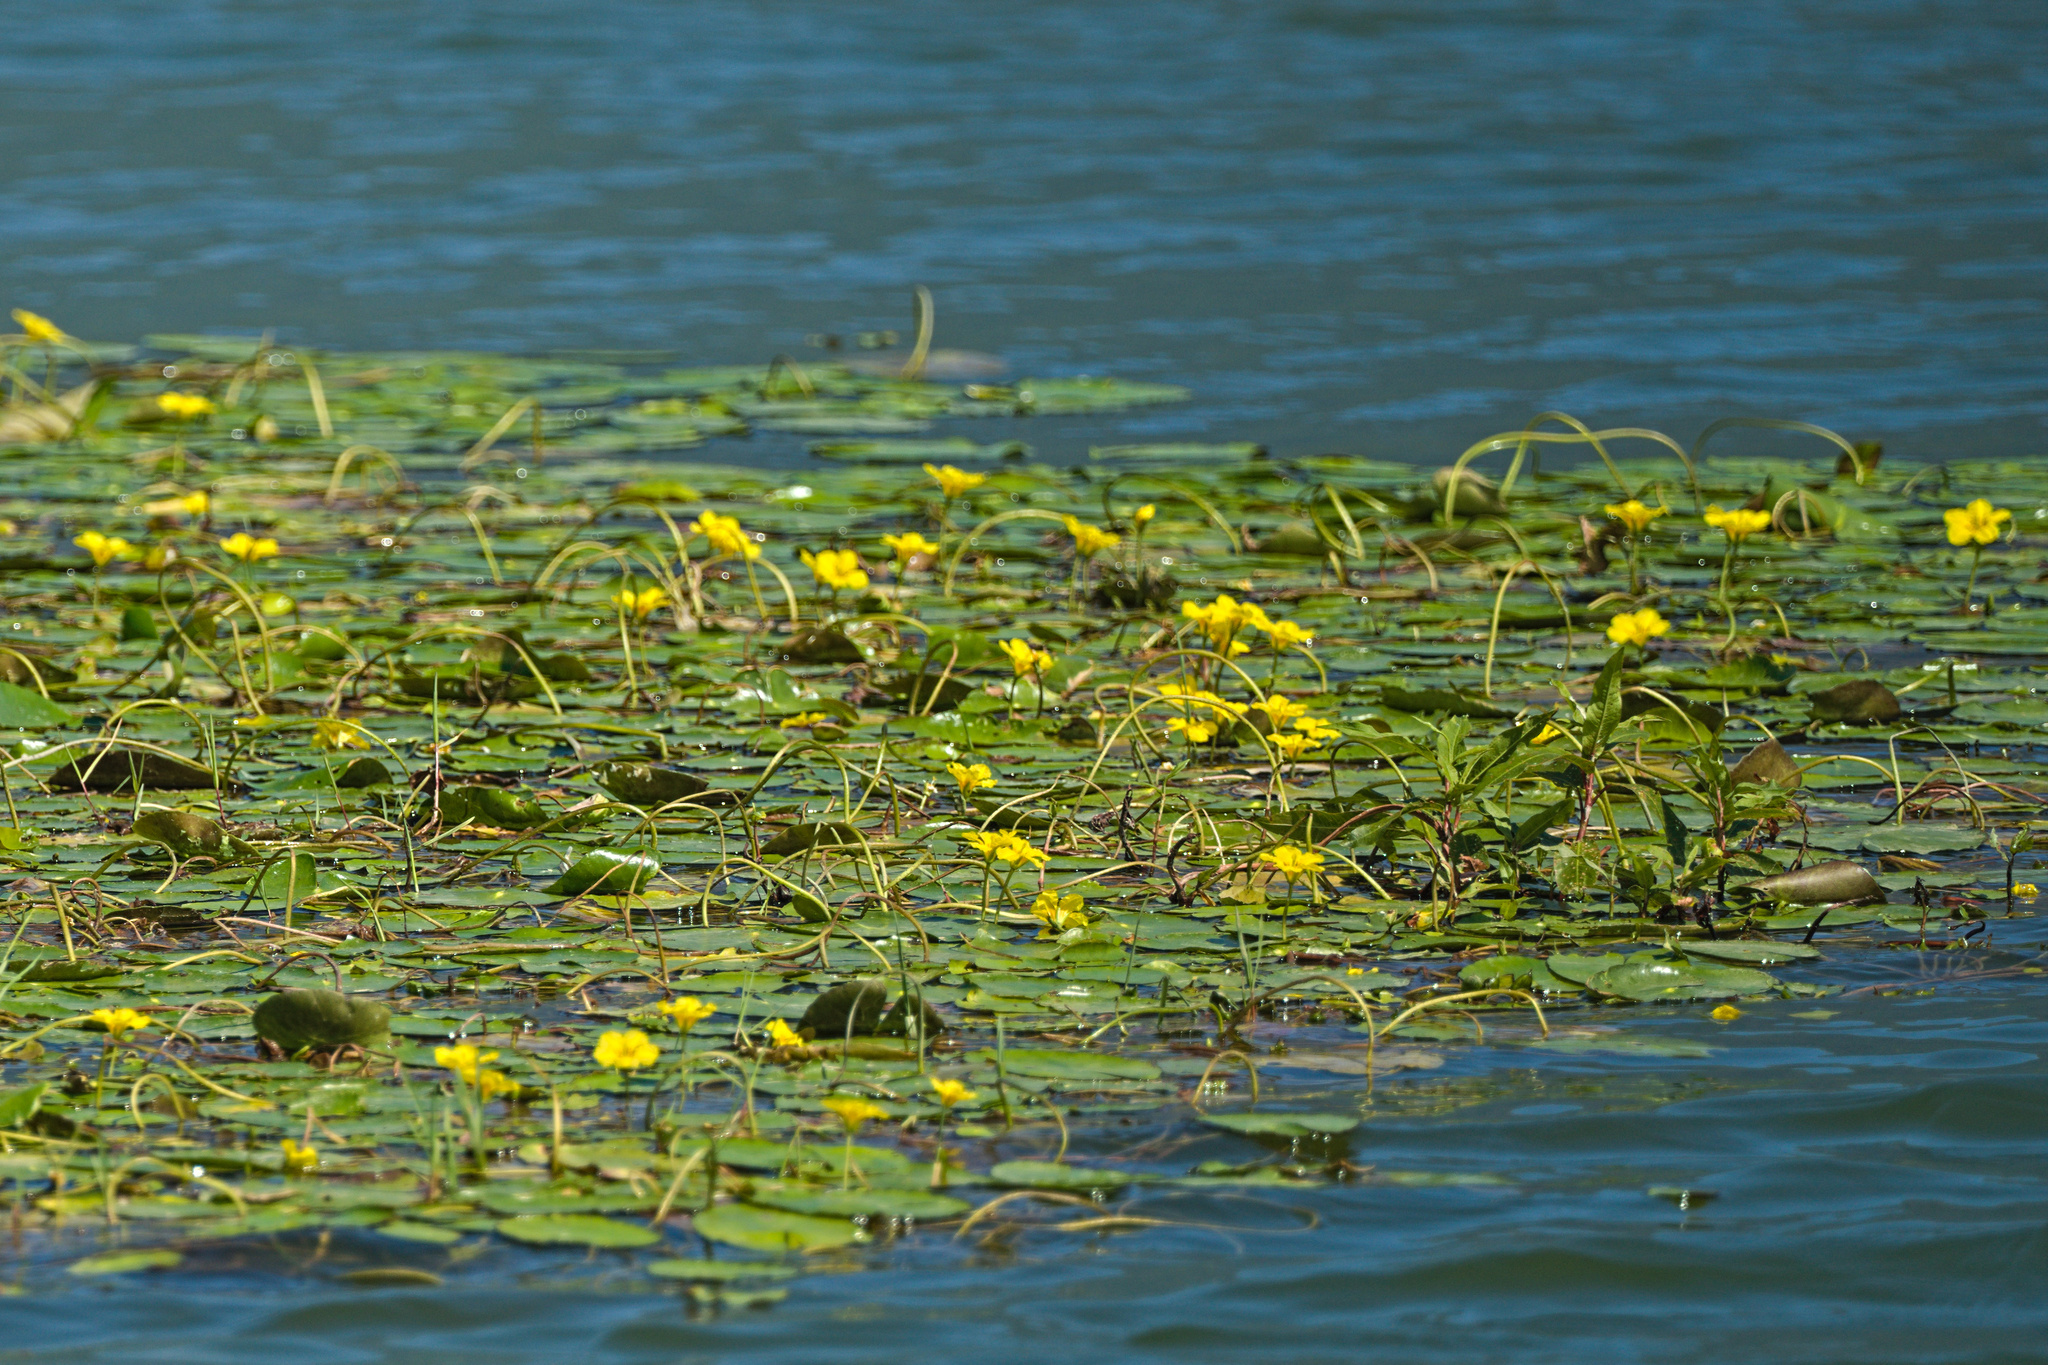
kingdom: Plantae
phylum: Tracheophyta
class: Magnoliopsida
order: Asterales
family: Menyanthaceae
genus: Nymphoides
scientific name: Nymphoides peltata
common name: Fringed water-lily
